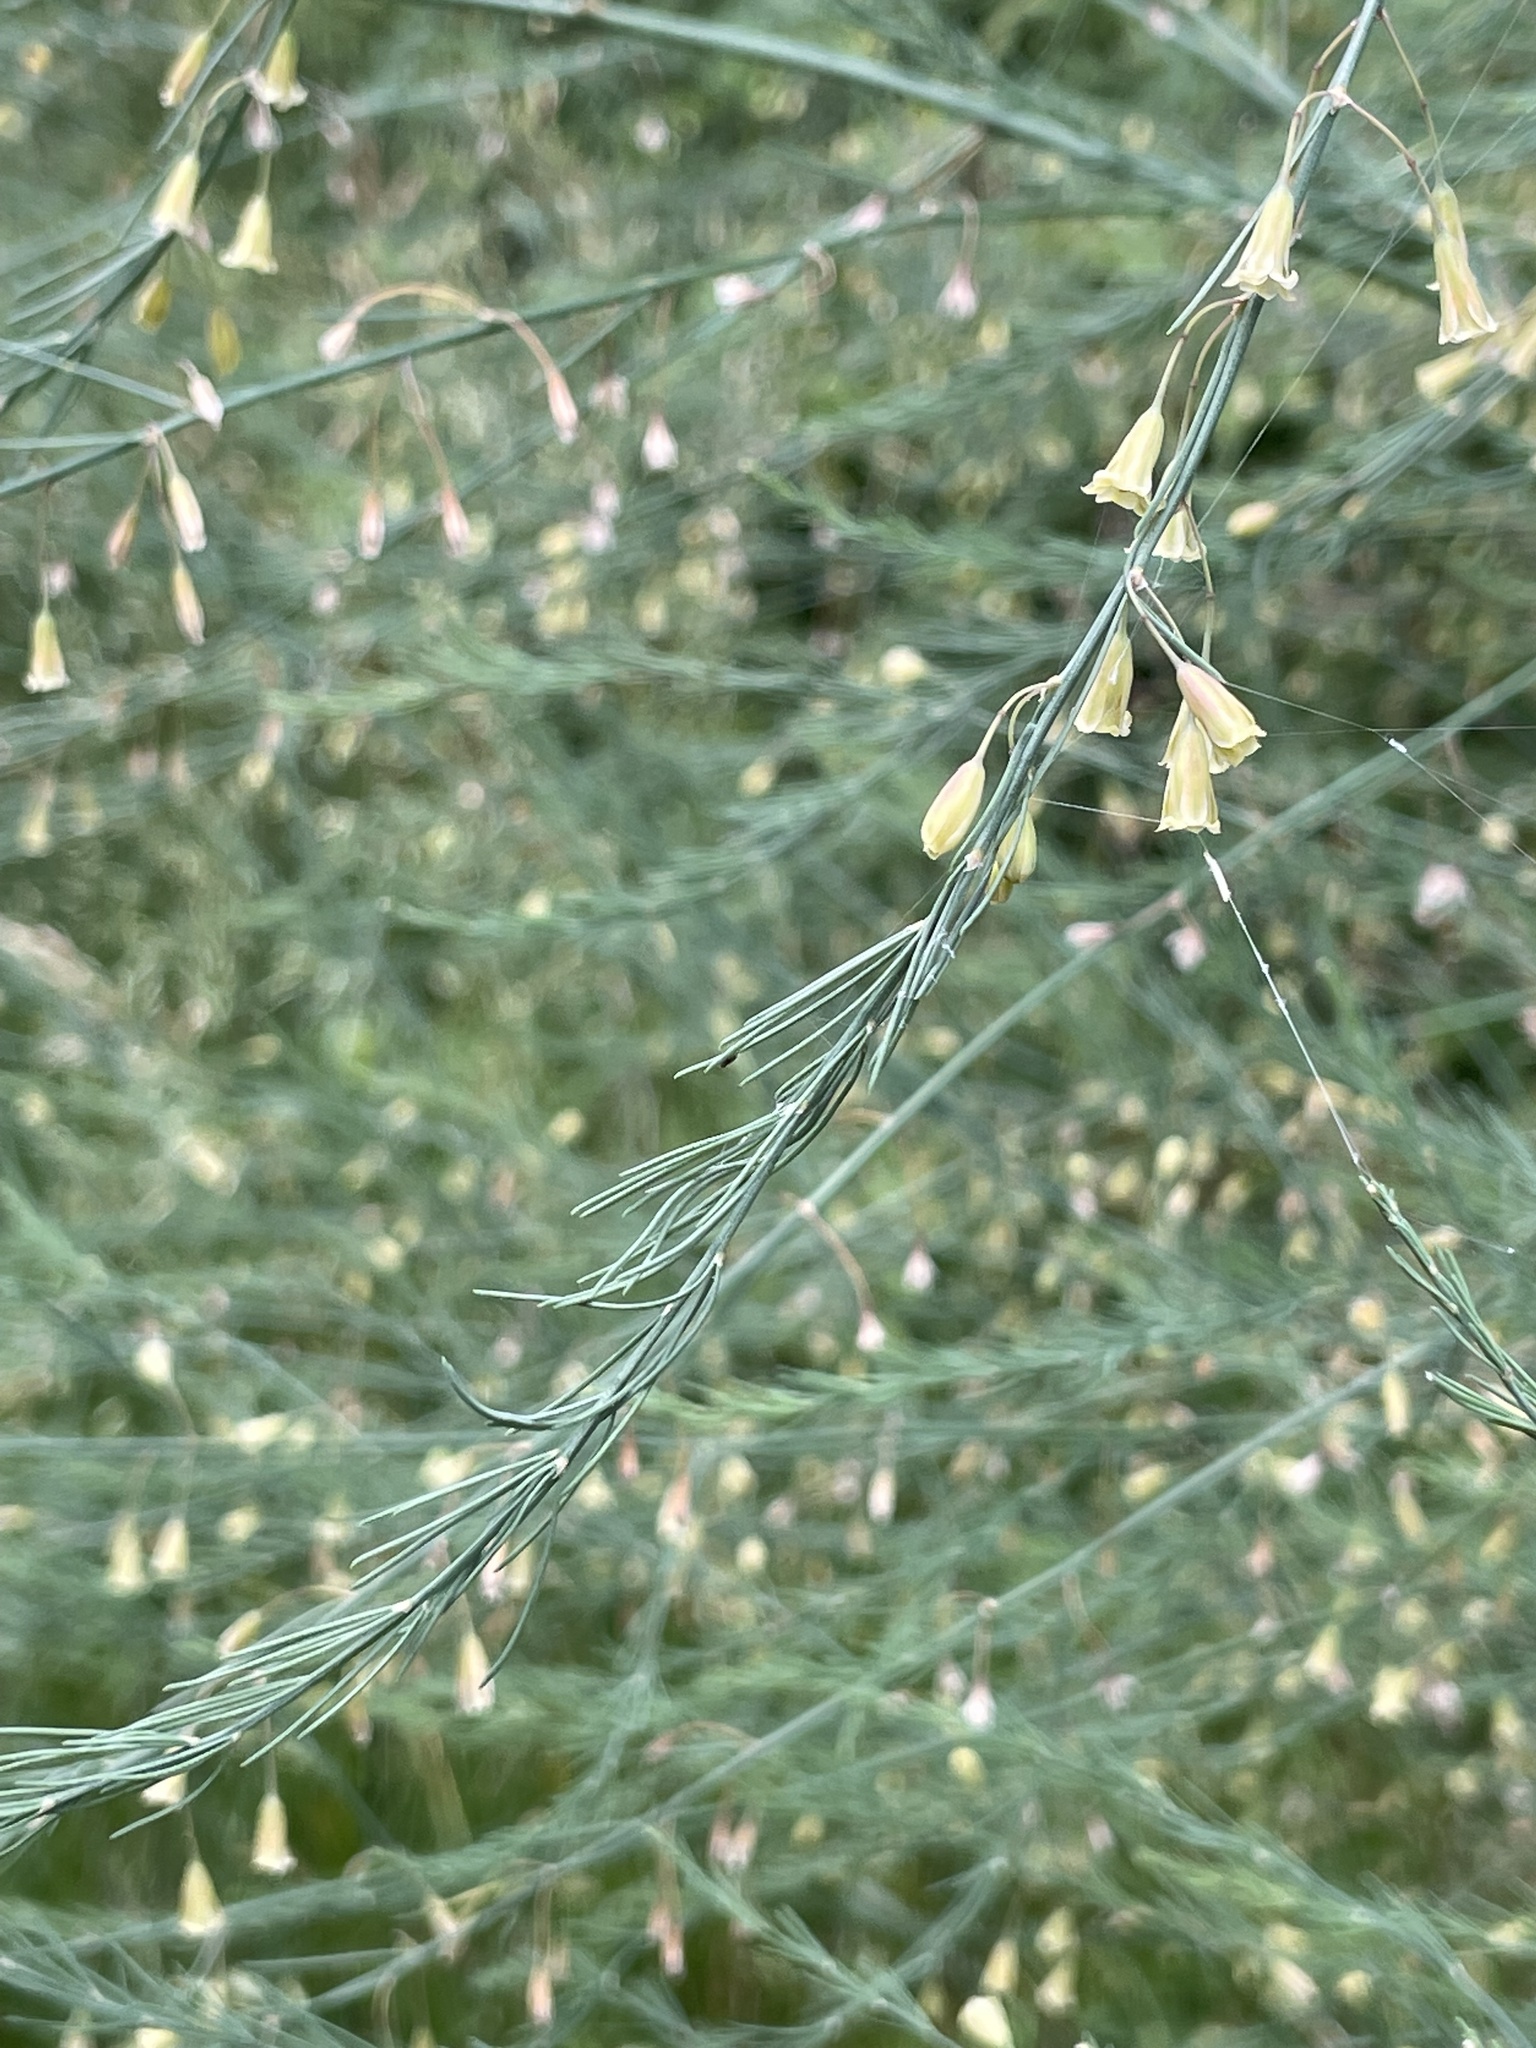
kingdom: Plantae
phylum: Tracheophyta
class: Liliopsida
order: Asparagales
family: Asparagaceae
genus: Asparagus
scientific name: Asparagus officinalis
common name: Garden asparagus
